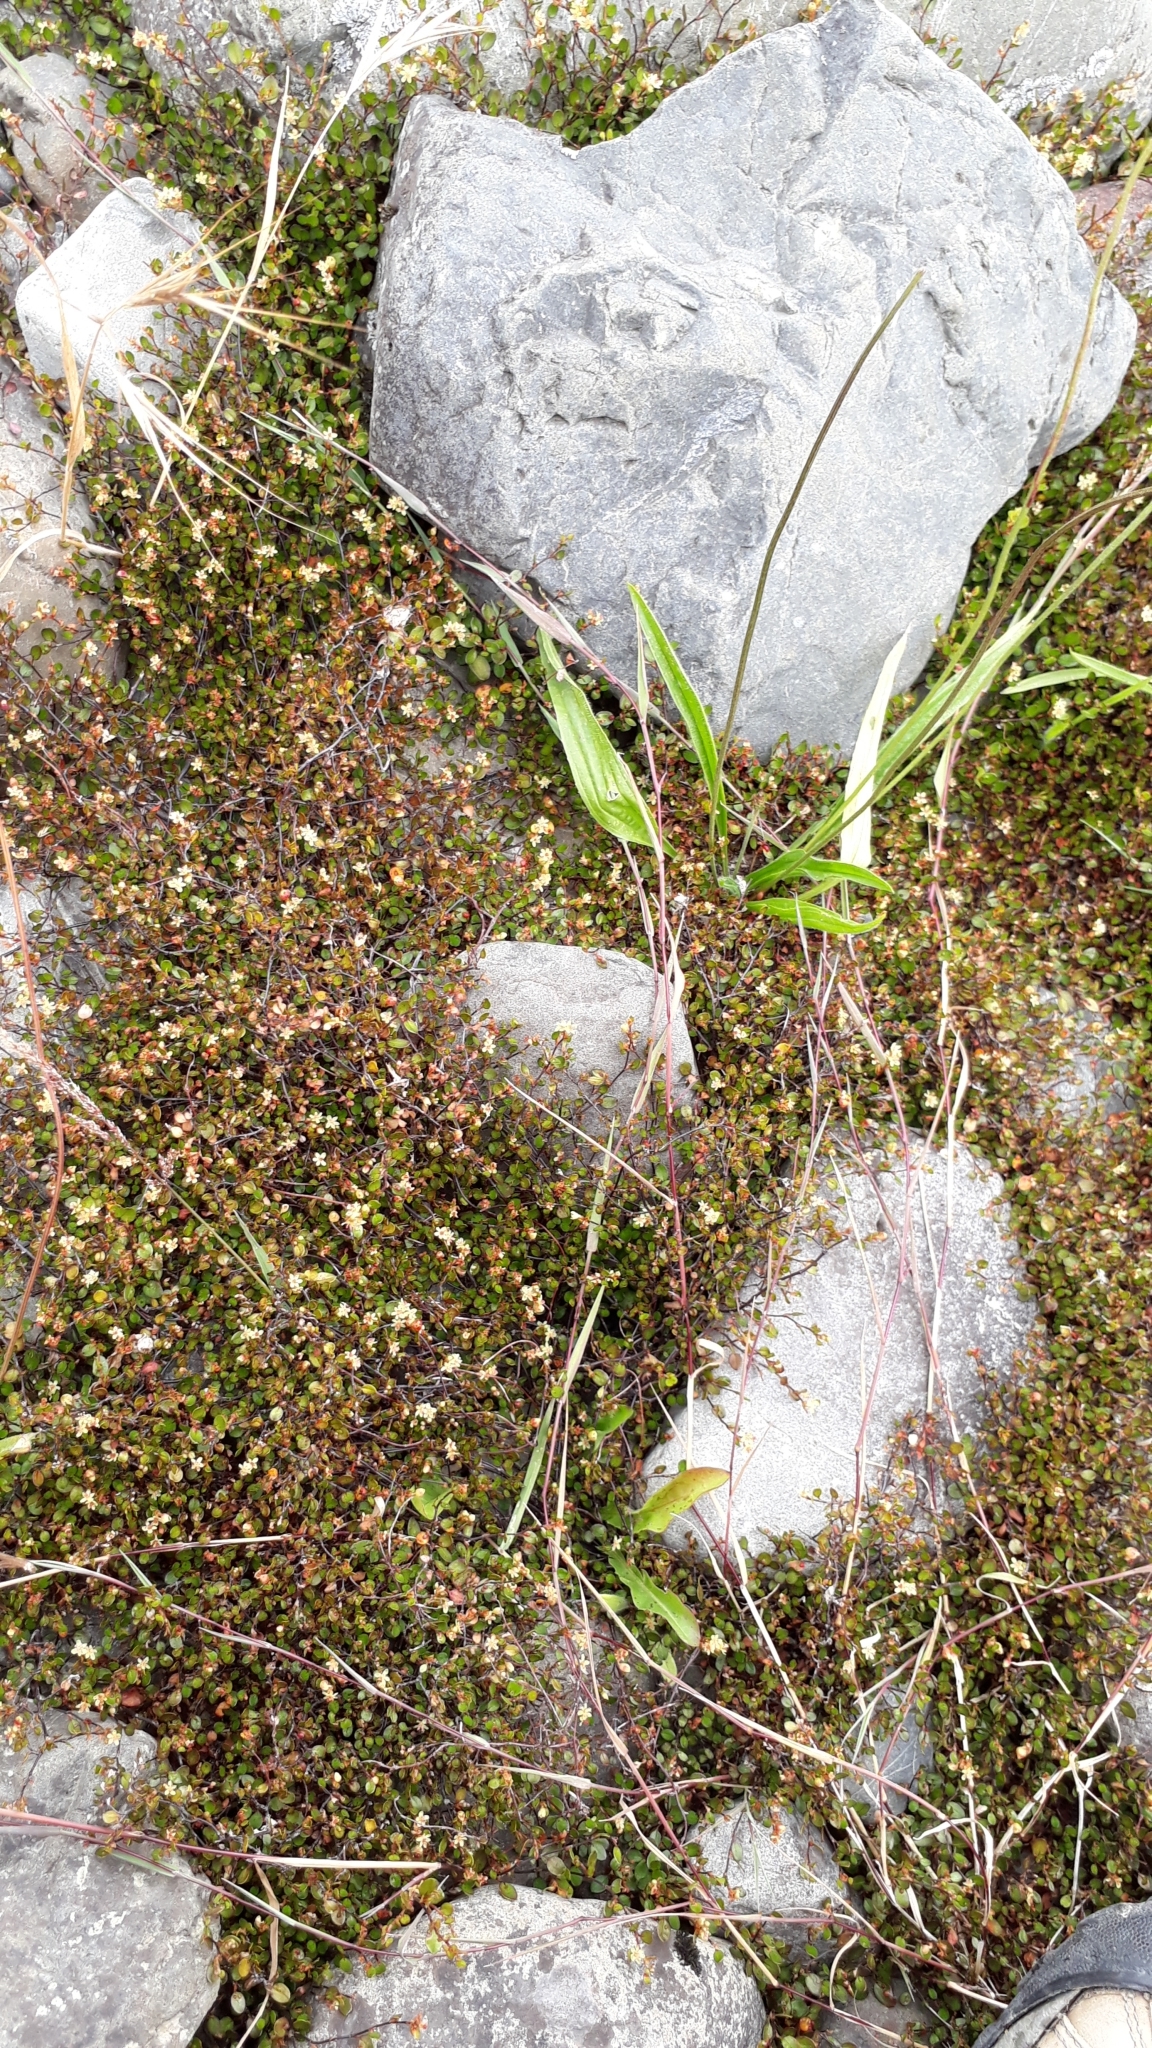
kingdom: Plantae
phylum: Tracheophyta
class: Magnoliopsida
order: Caryophyllales
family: Polygonaceae
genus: Muehlenbeckia
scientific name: Muehlenbeckia axillaris
